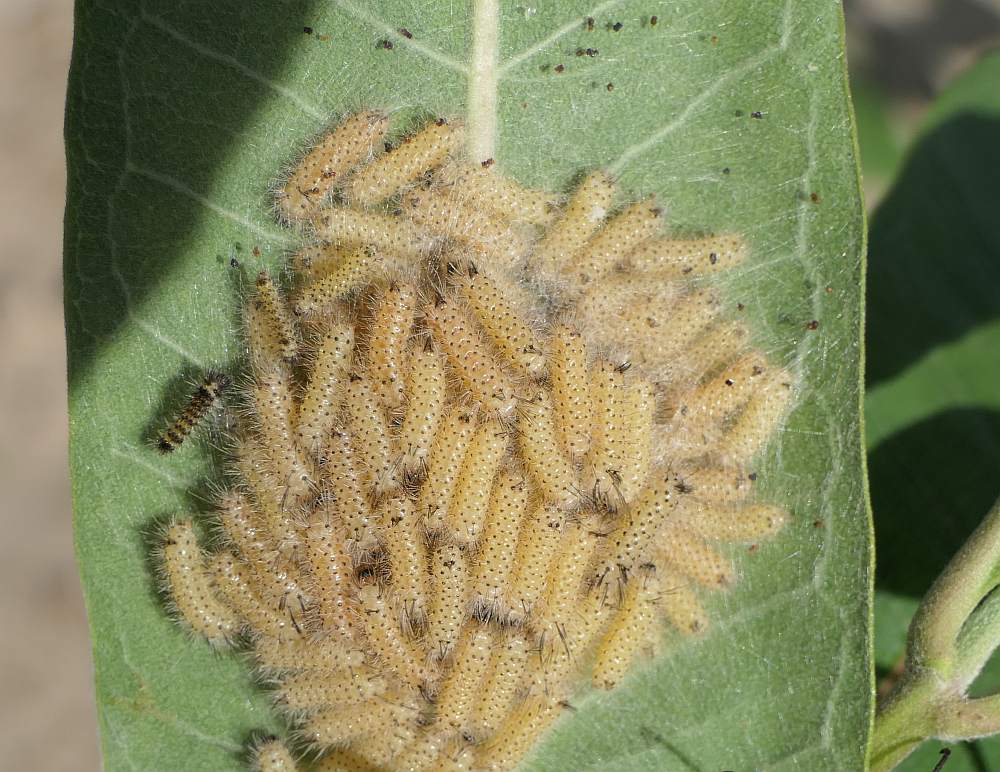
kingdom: Animalia
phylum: Arthropoda
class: Insecta
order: Lepidoptera
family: Erebidae
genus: Euchaetes
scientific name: Euchaetes egle
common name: Milkweed tussock moth
